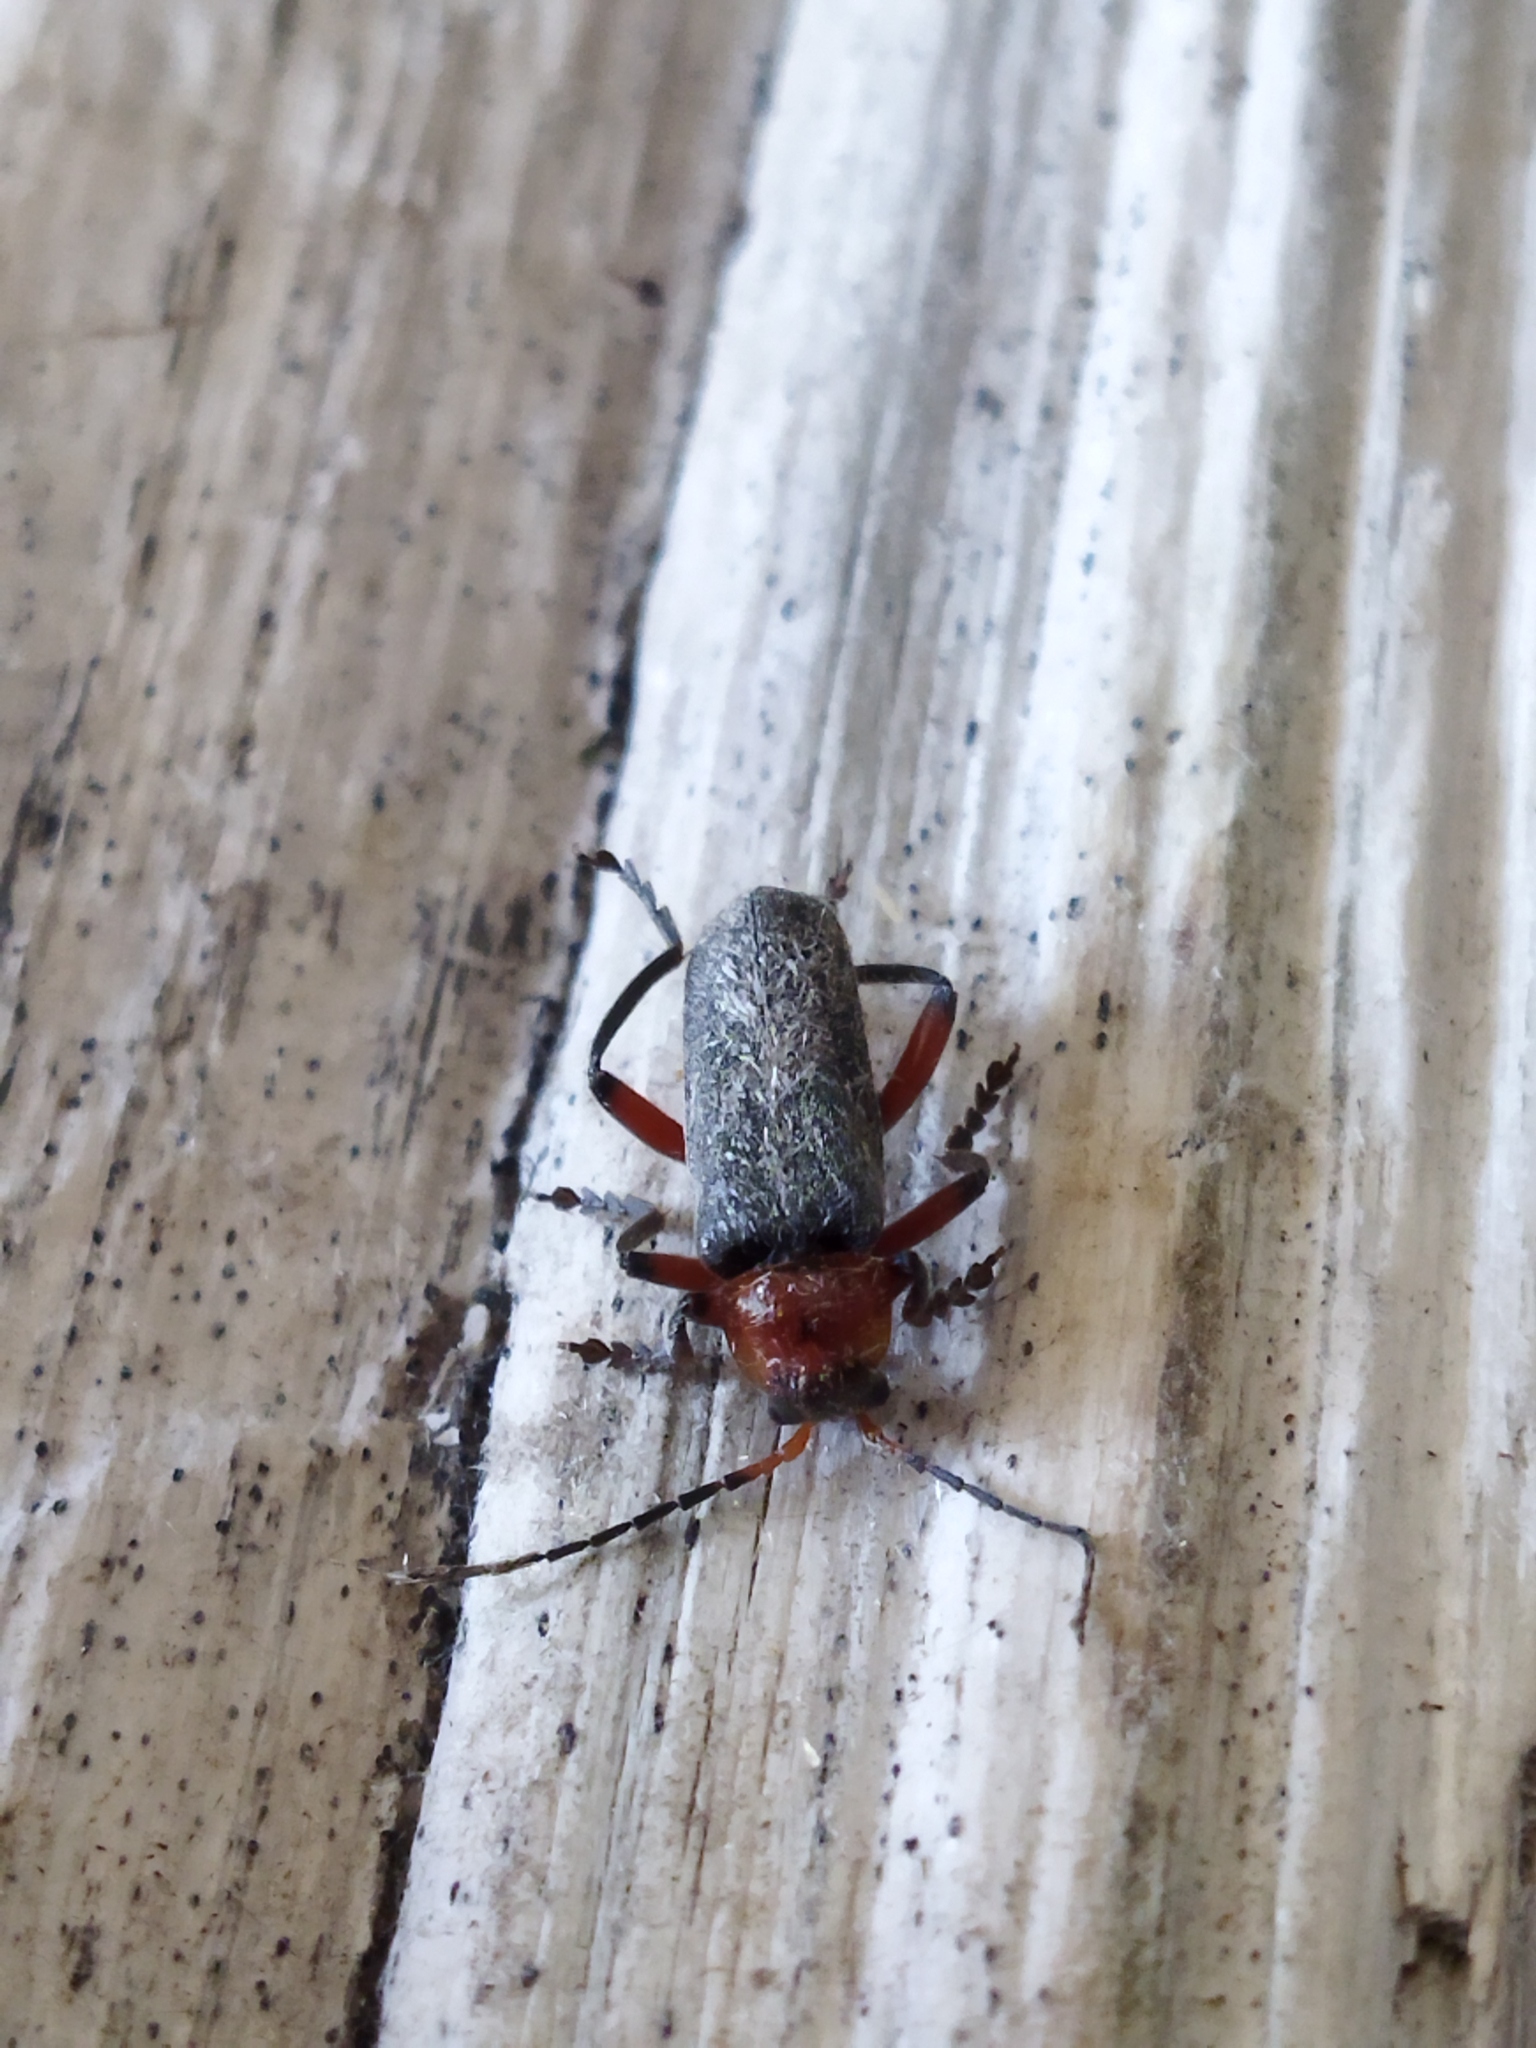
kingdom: Animalia
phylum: Arthropoda
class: Insecta
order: Coleoptera
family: Cantharidae
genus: Cantharis
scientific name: Cantharis rustica
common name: Soldier beetle
